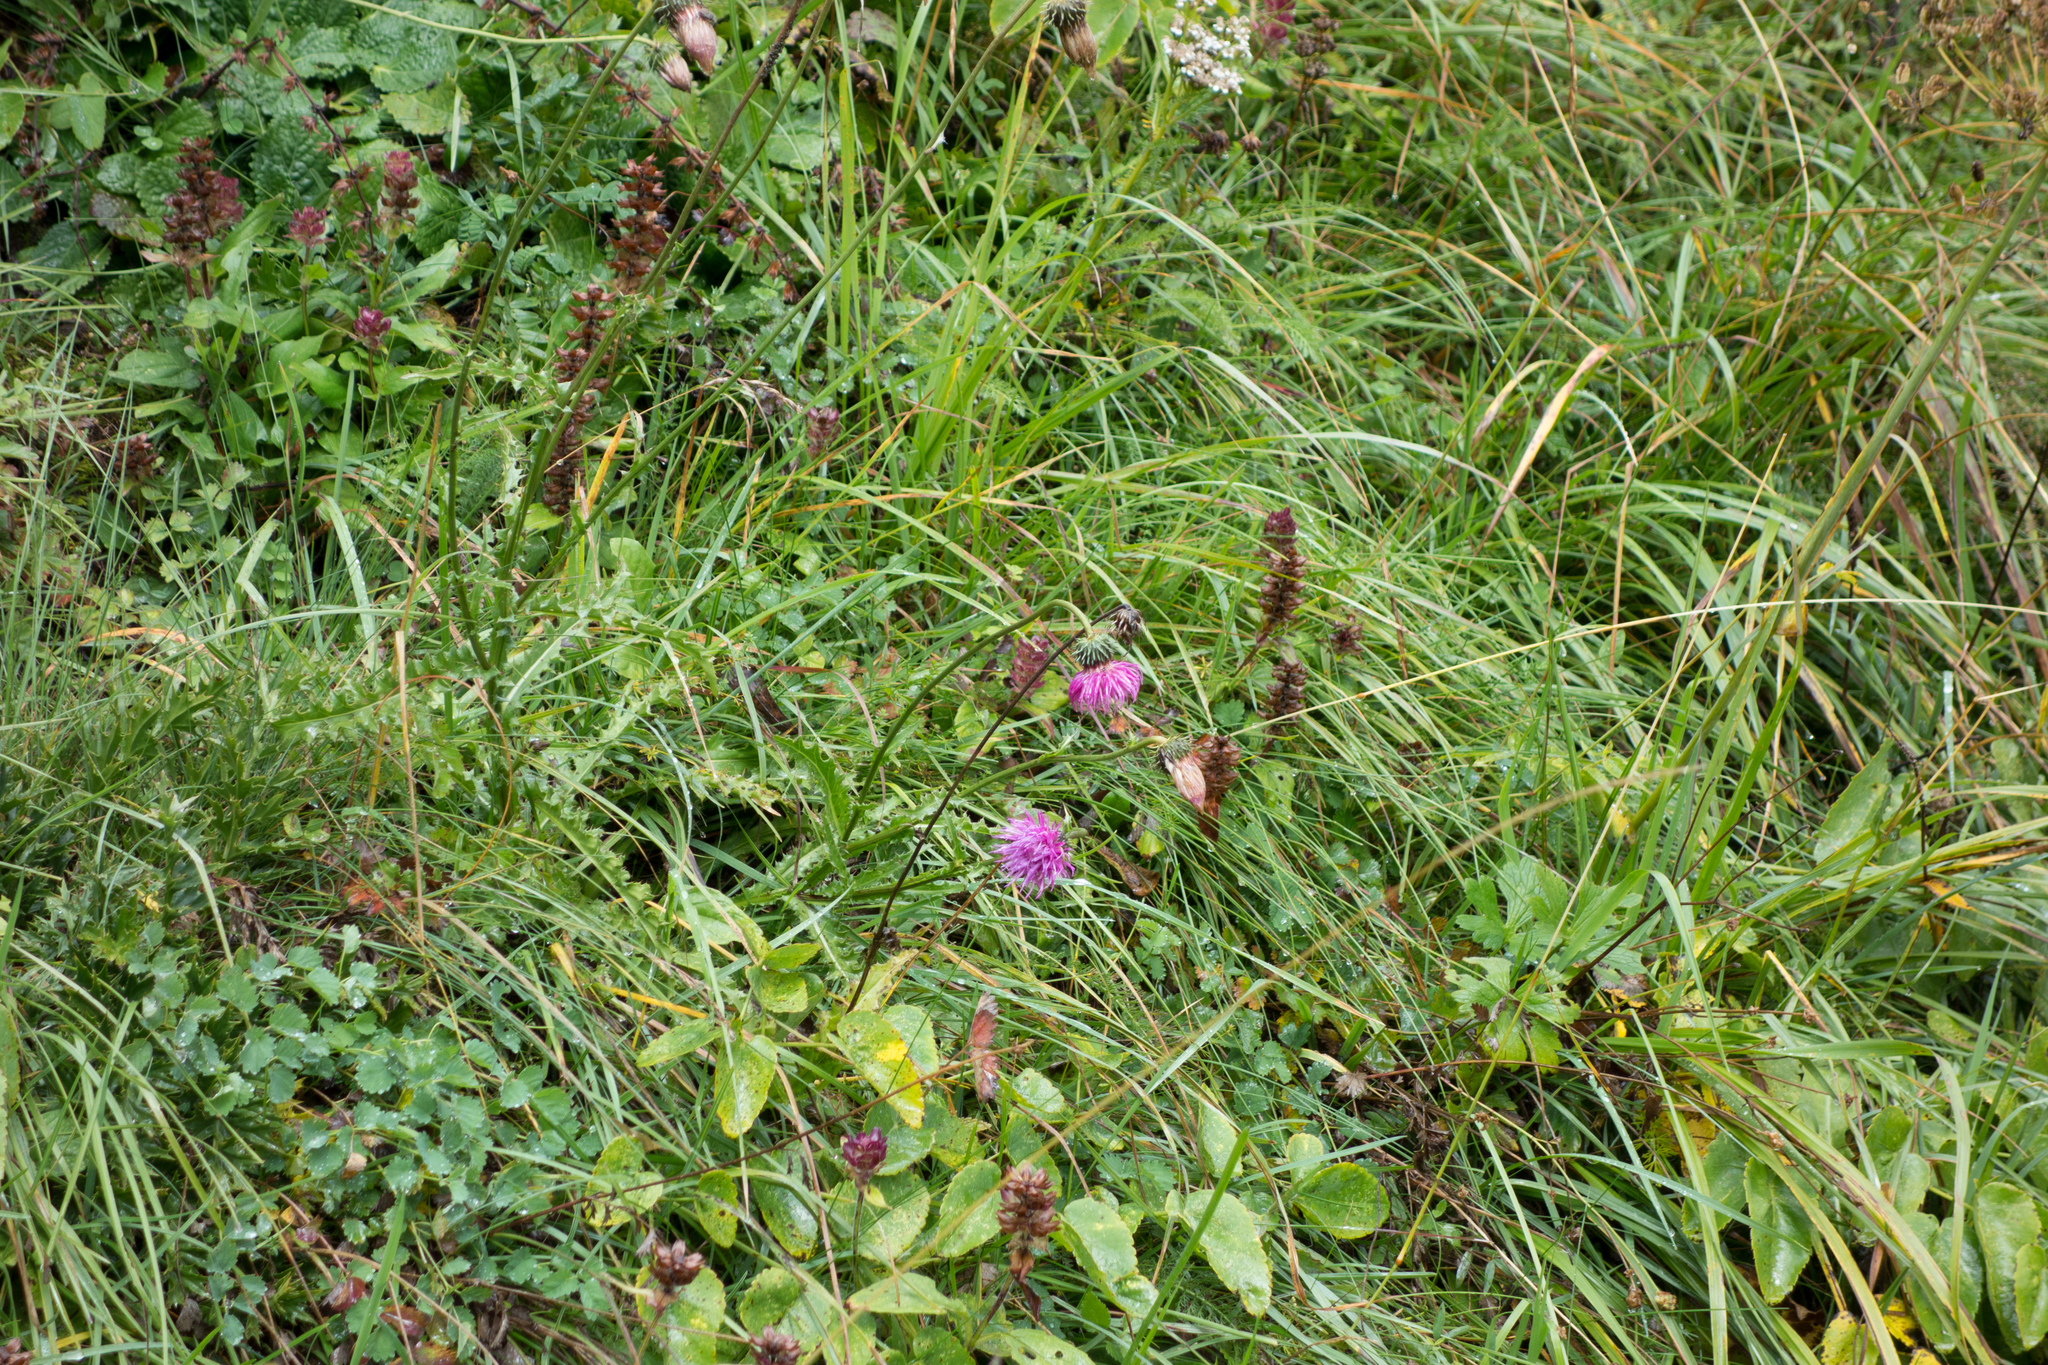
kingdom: Plantae
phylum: Tracheophyta
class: Magnoliopsida
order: Asterales
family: Asteraceae
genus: Carduus
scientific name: Carduus defloratus
